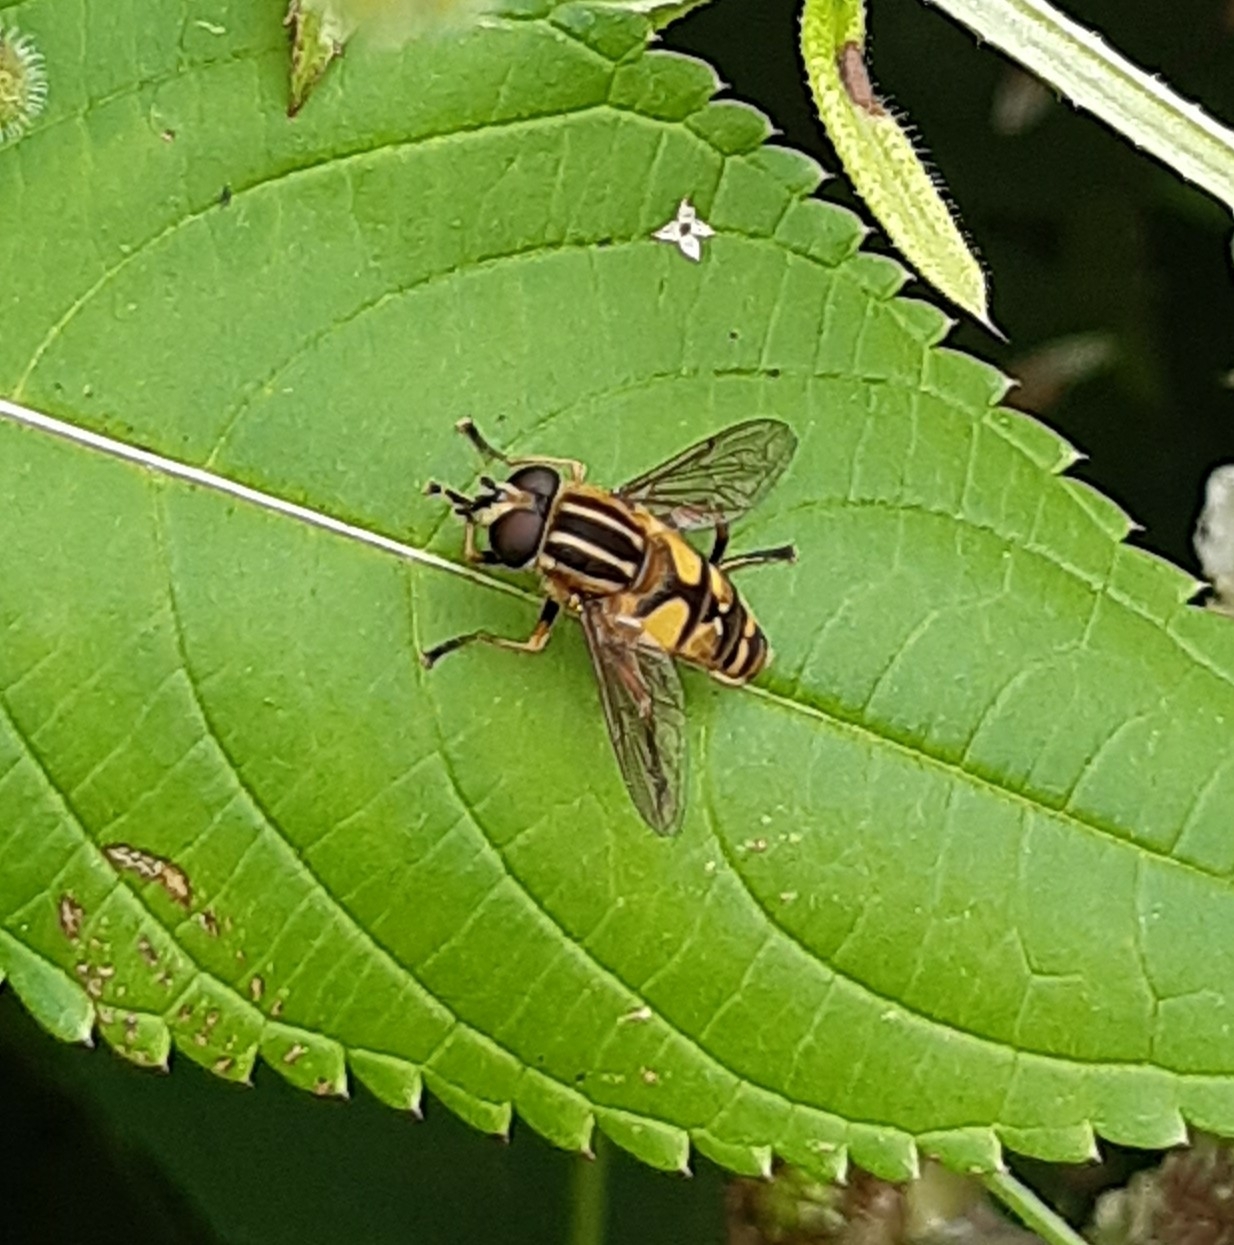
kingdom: Animalia
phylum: Arthropoda
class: Insecta
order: Diptera
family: Syrphidae
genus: Helophilus
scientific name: Helophilus pendulus
